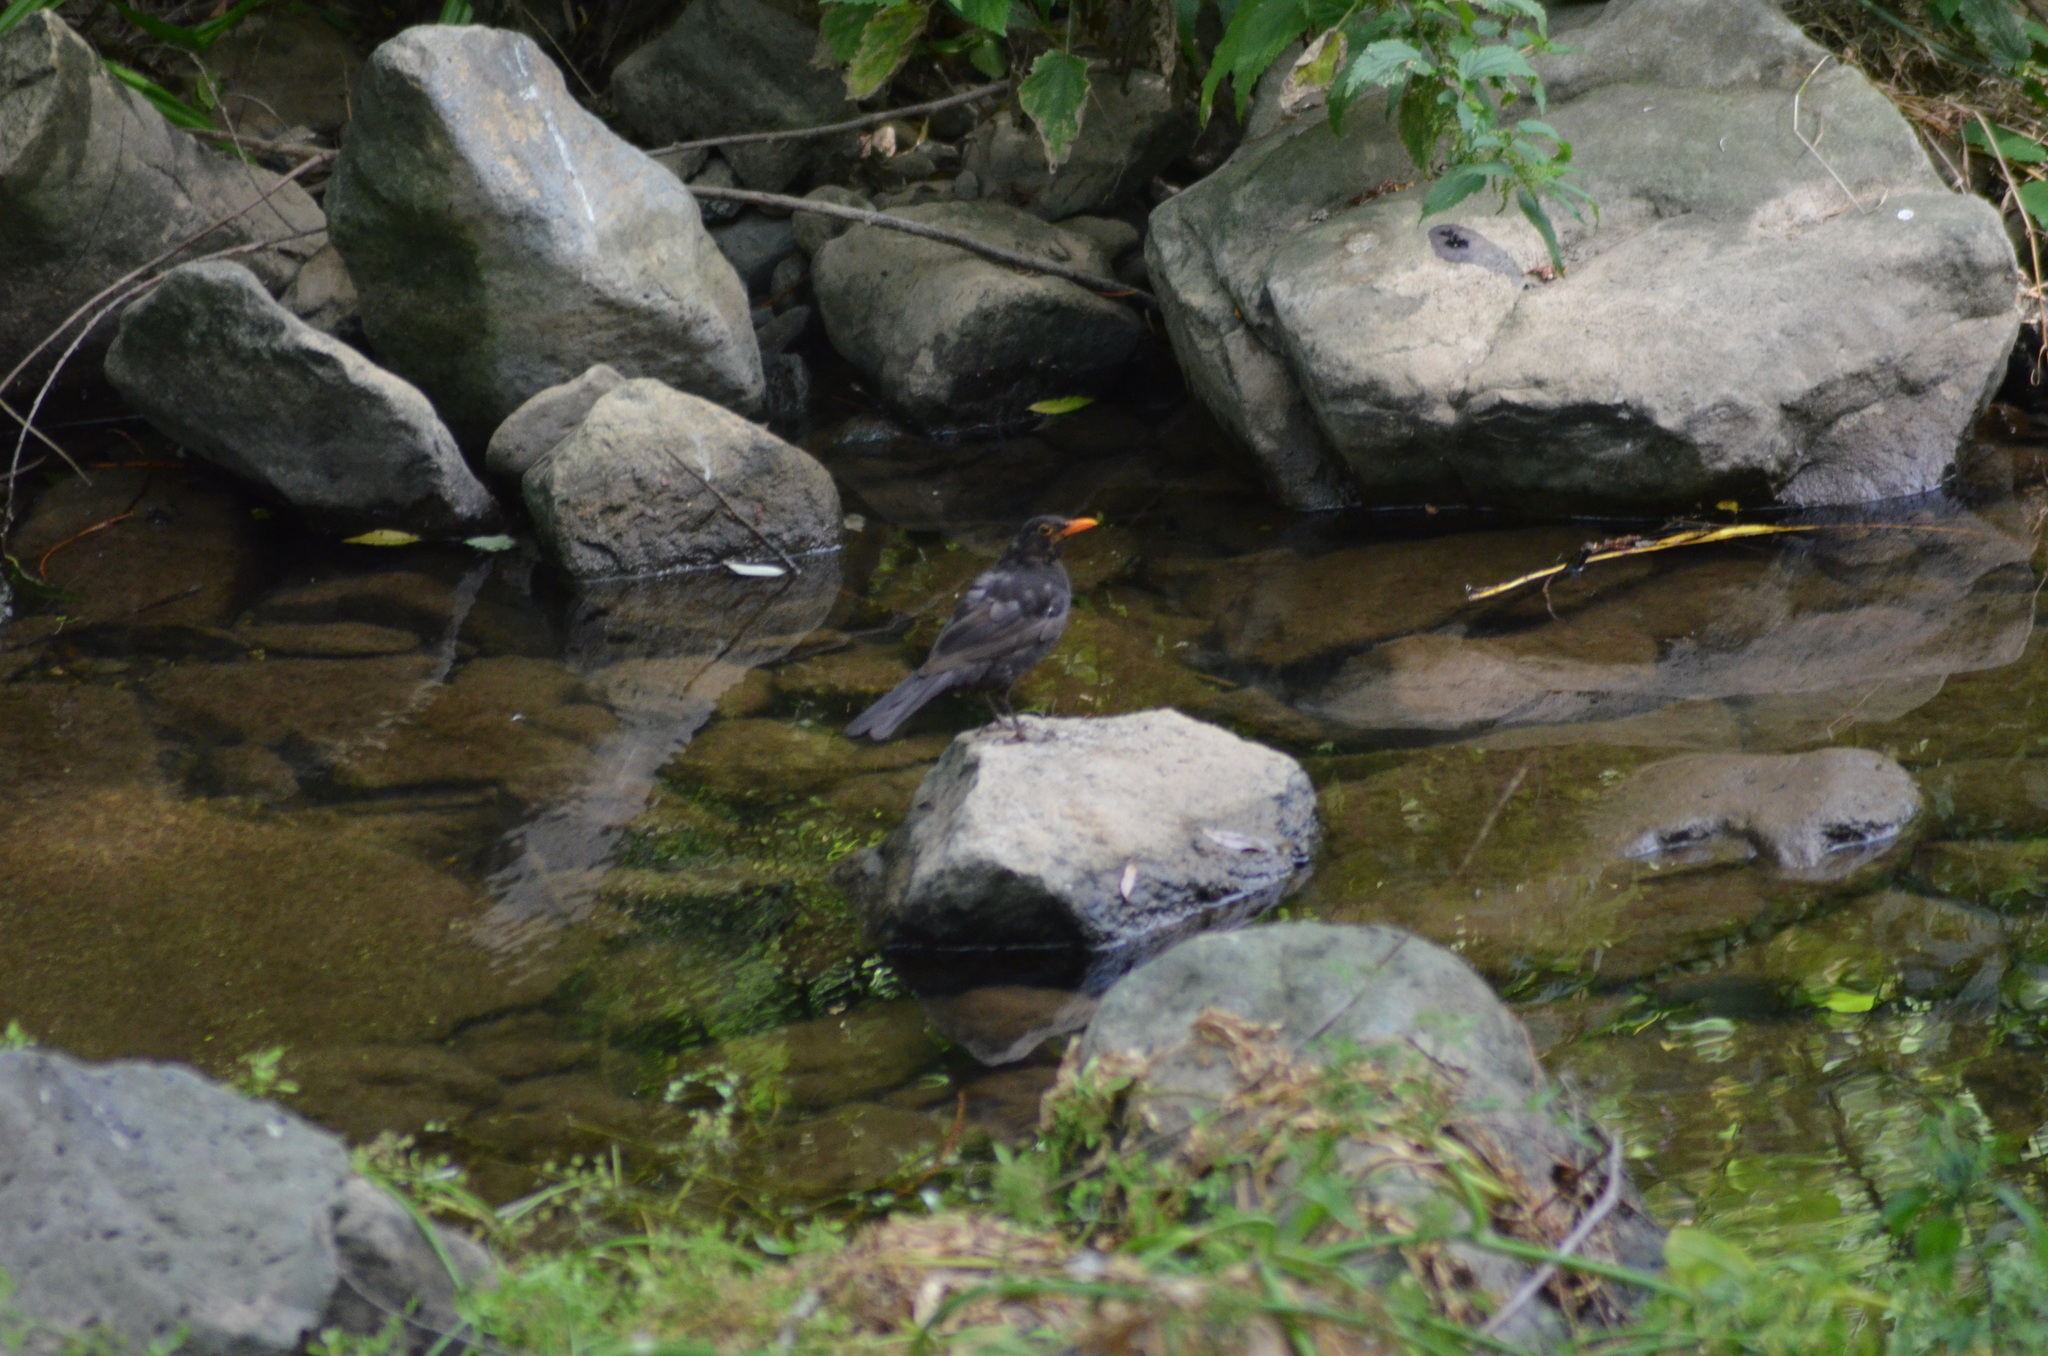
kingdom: Animalia
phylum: Chordata
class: Aves
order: Passeriformes
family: Turdidae
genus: Turdus
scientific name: Turdus merula
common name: Common blackbird
